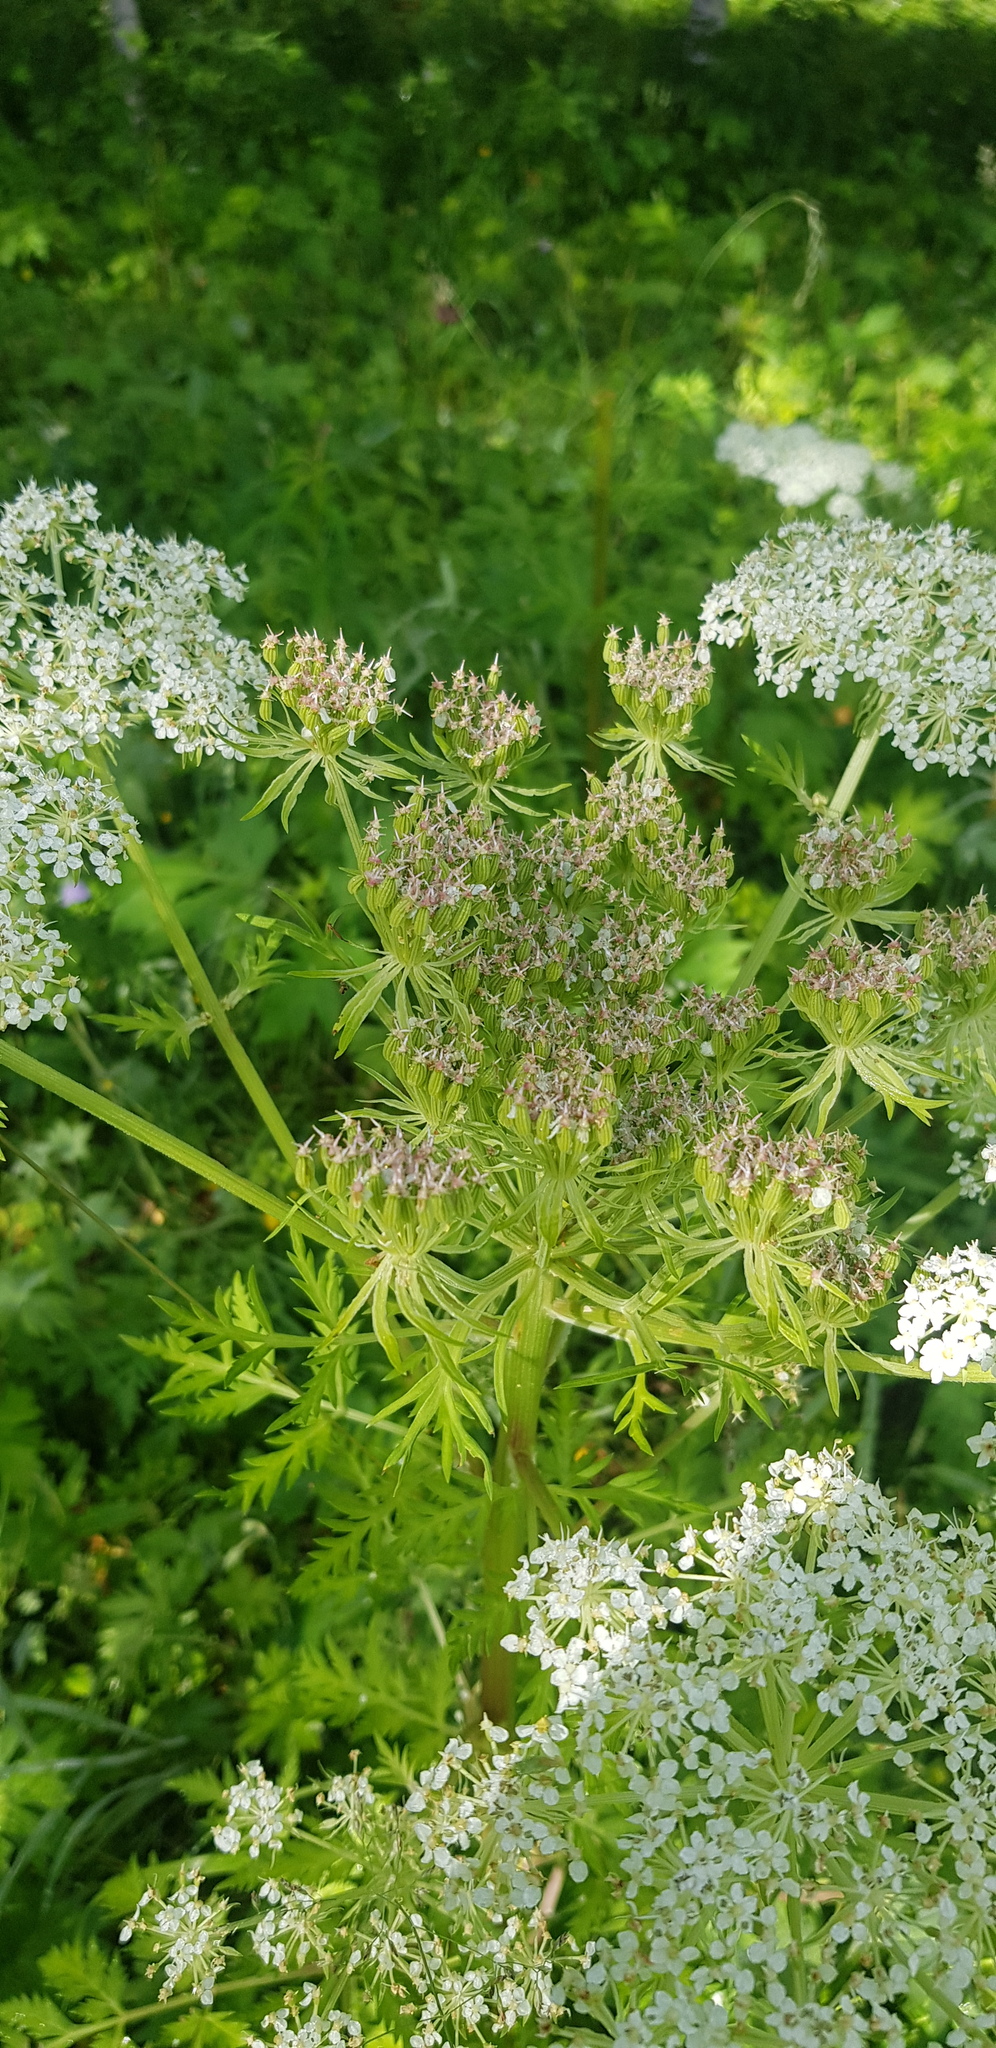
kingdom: Plantae
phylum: Tracheophyta
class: Magnoliopsida
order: Apiales
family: Apiaceae
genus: Pleurospermum
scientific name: Pleurospermum uralense
